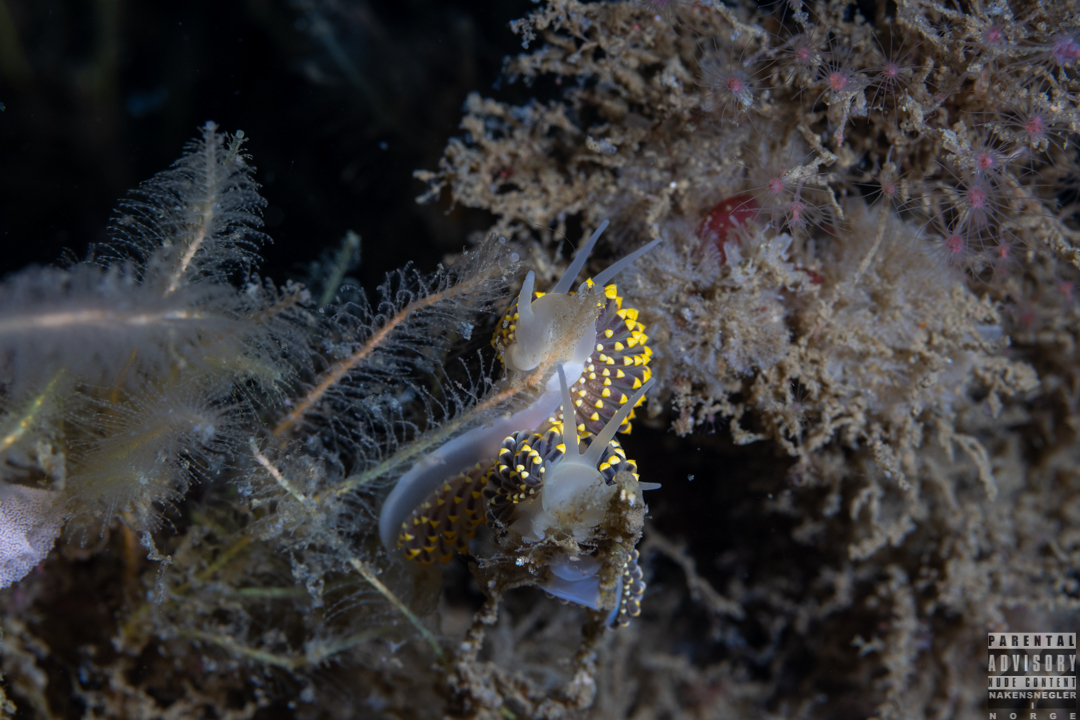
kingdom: Animalia
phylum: Mollusca
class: Gastropoda
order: Nudibranchia
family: Eubranchidae
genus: Eubranchus
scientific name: Eubranchus tricolor
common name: Painted balloon aeolis
